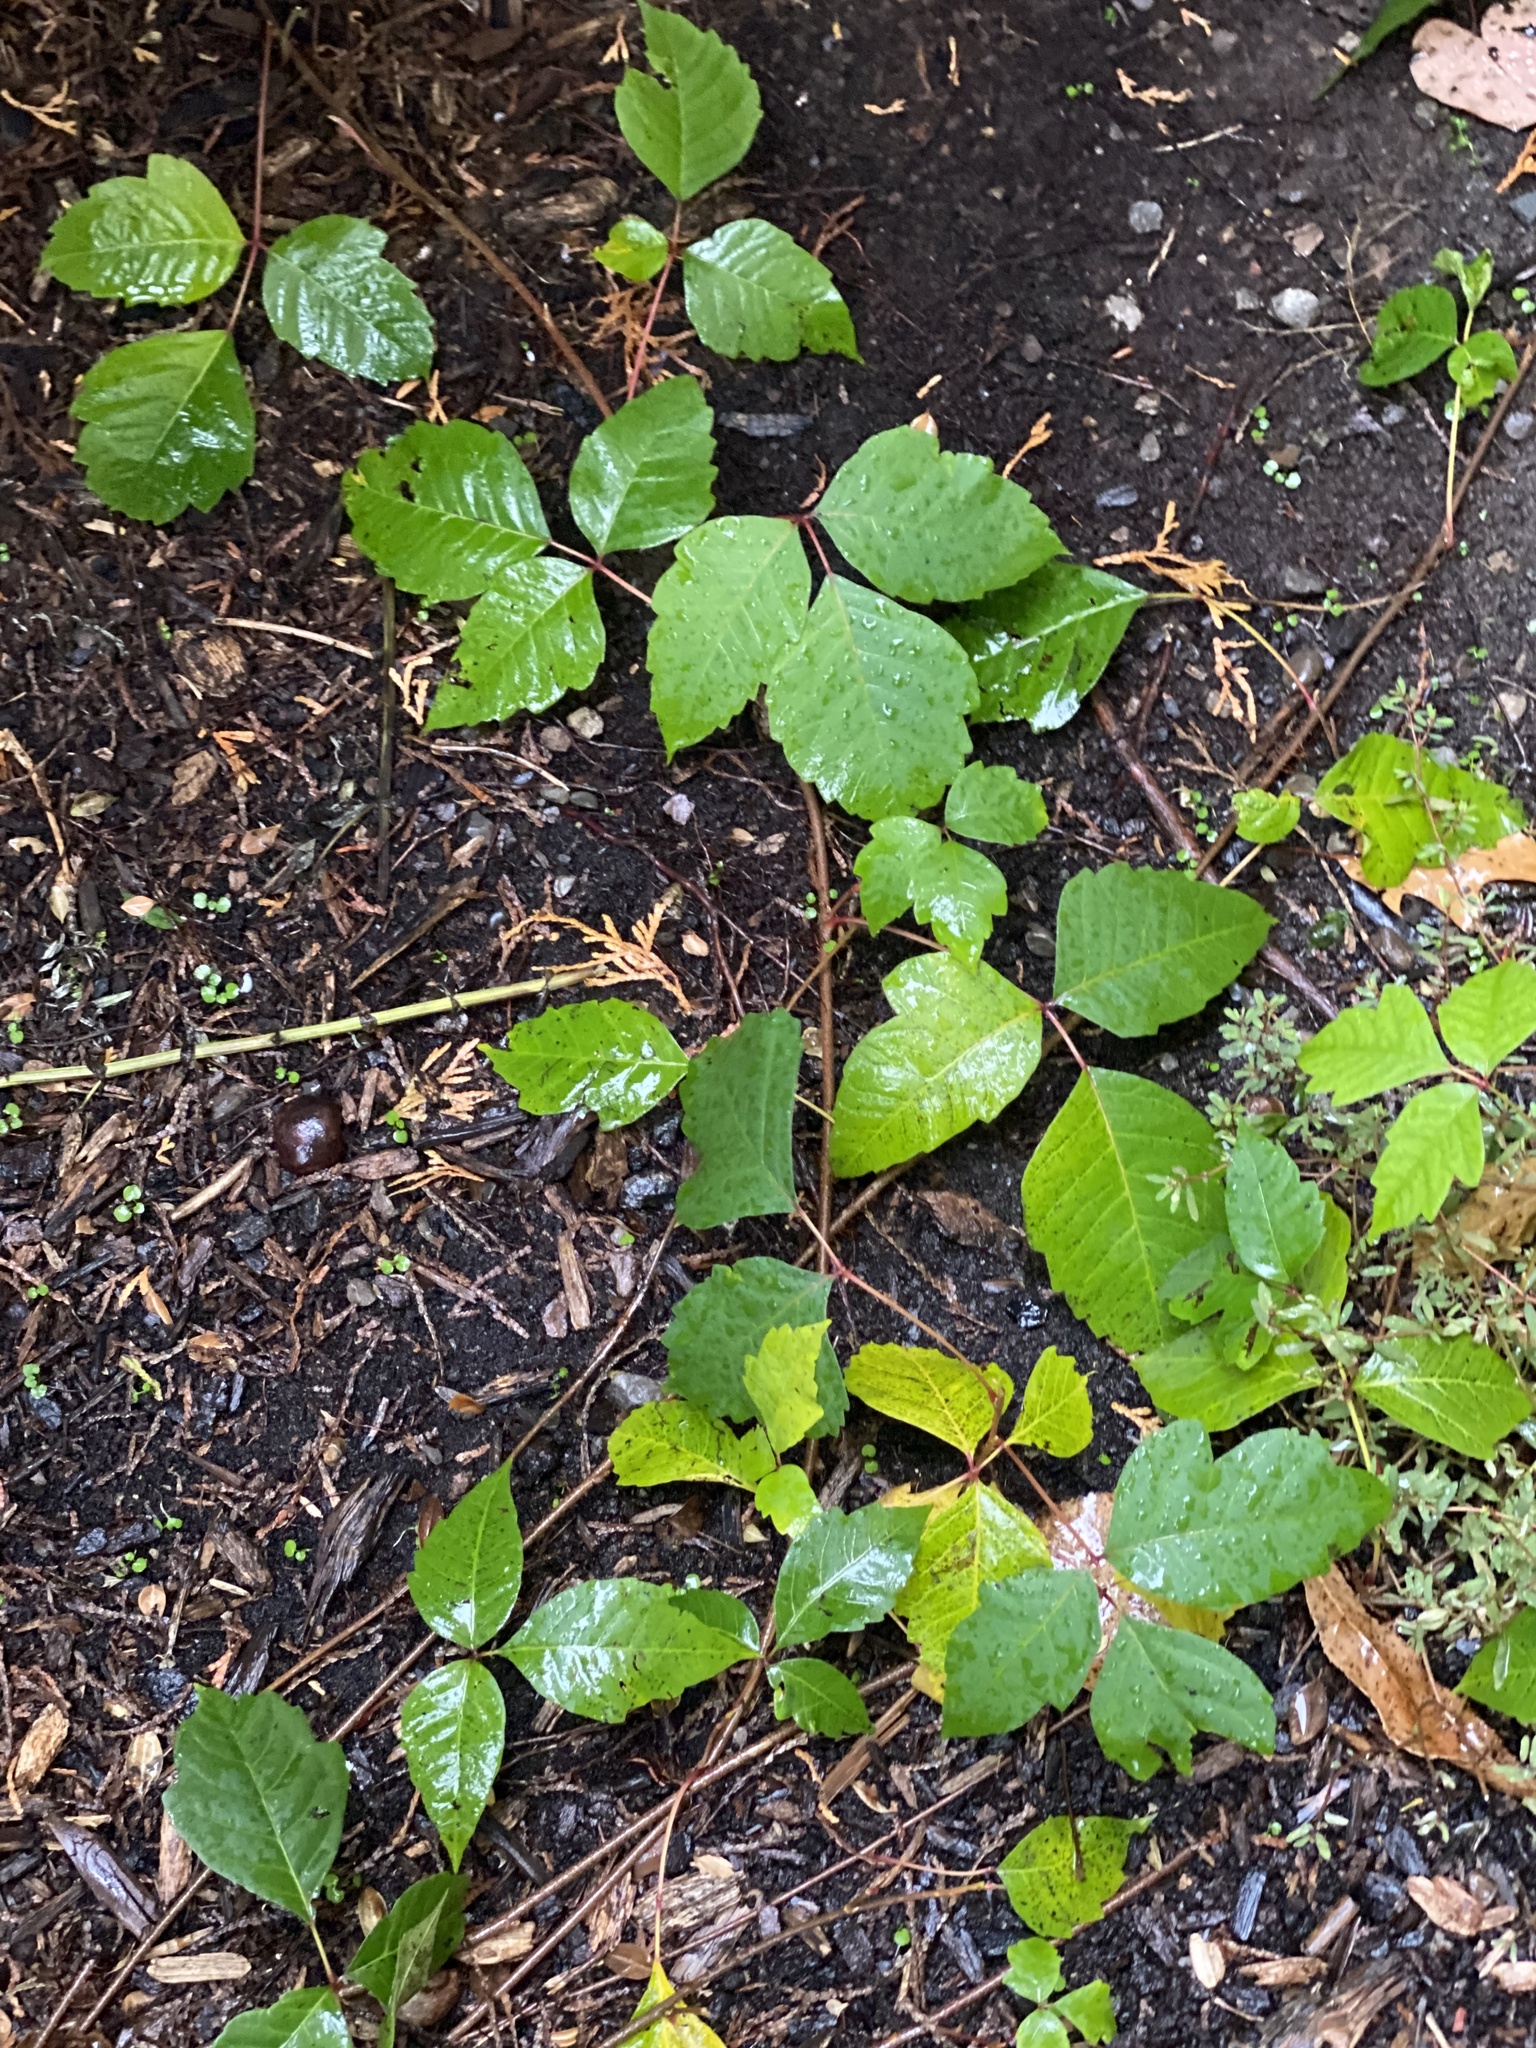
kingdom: Plantae
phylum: Tracheophyta
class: Magnoliopsida
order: Sapindales
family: Anacardiaceae
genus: Toxicodendron
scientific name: Toxicodendron radicans
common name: Poison ivy
